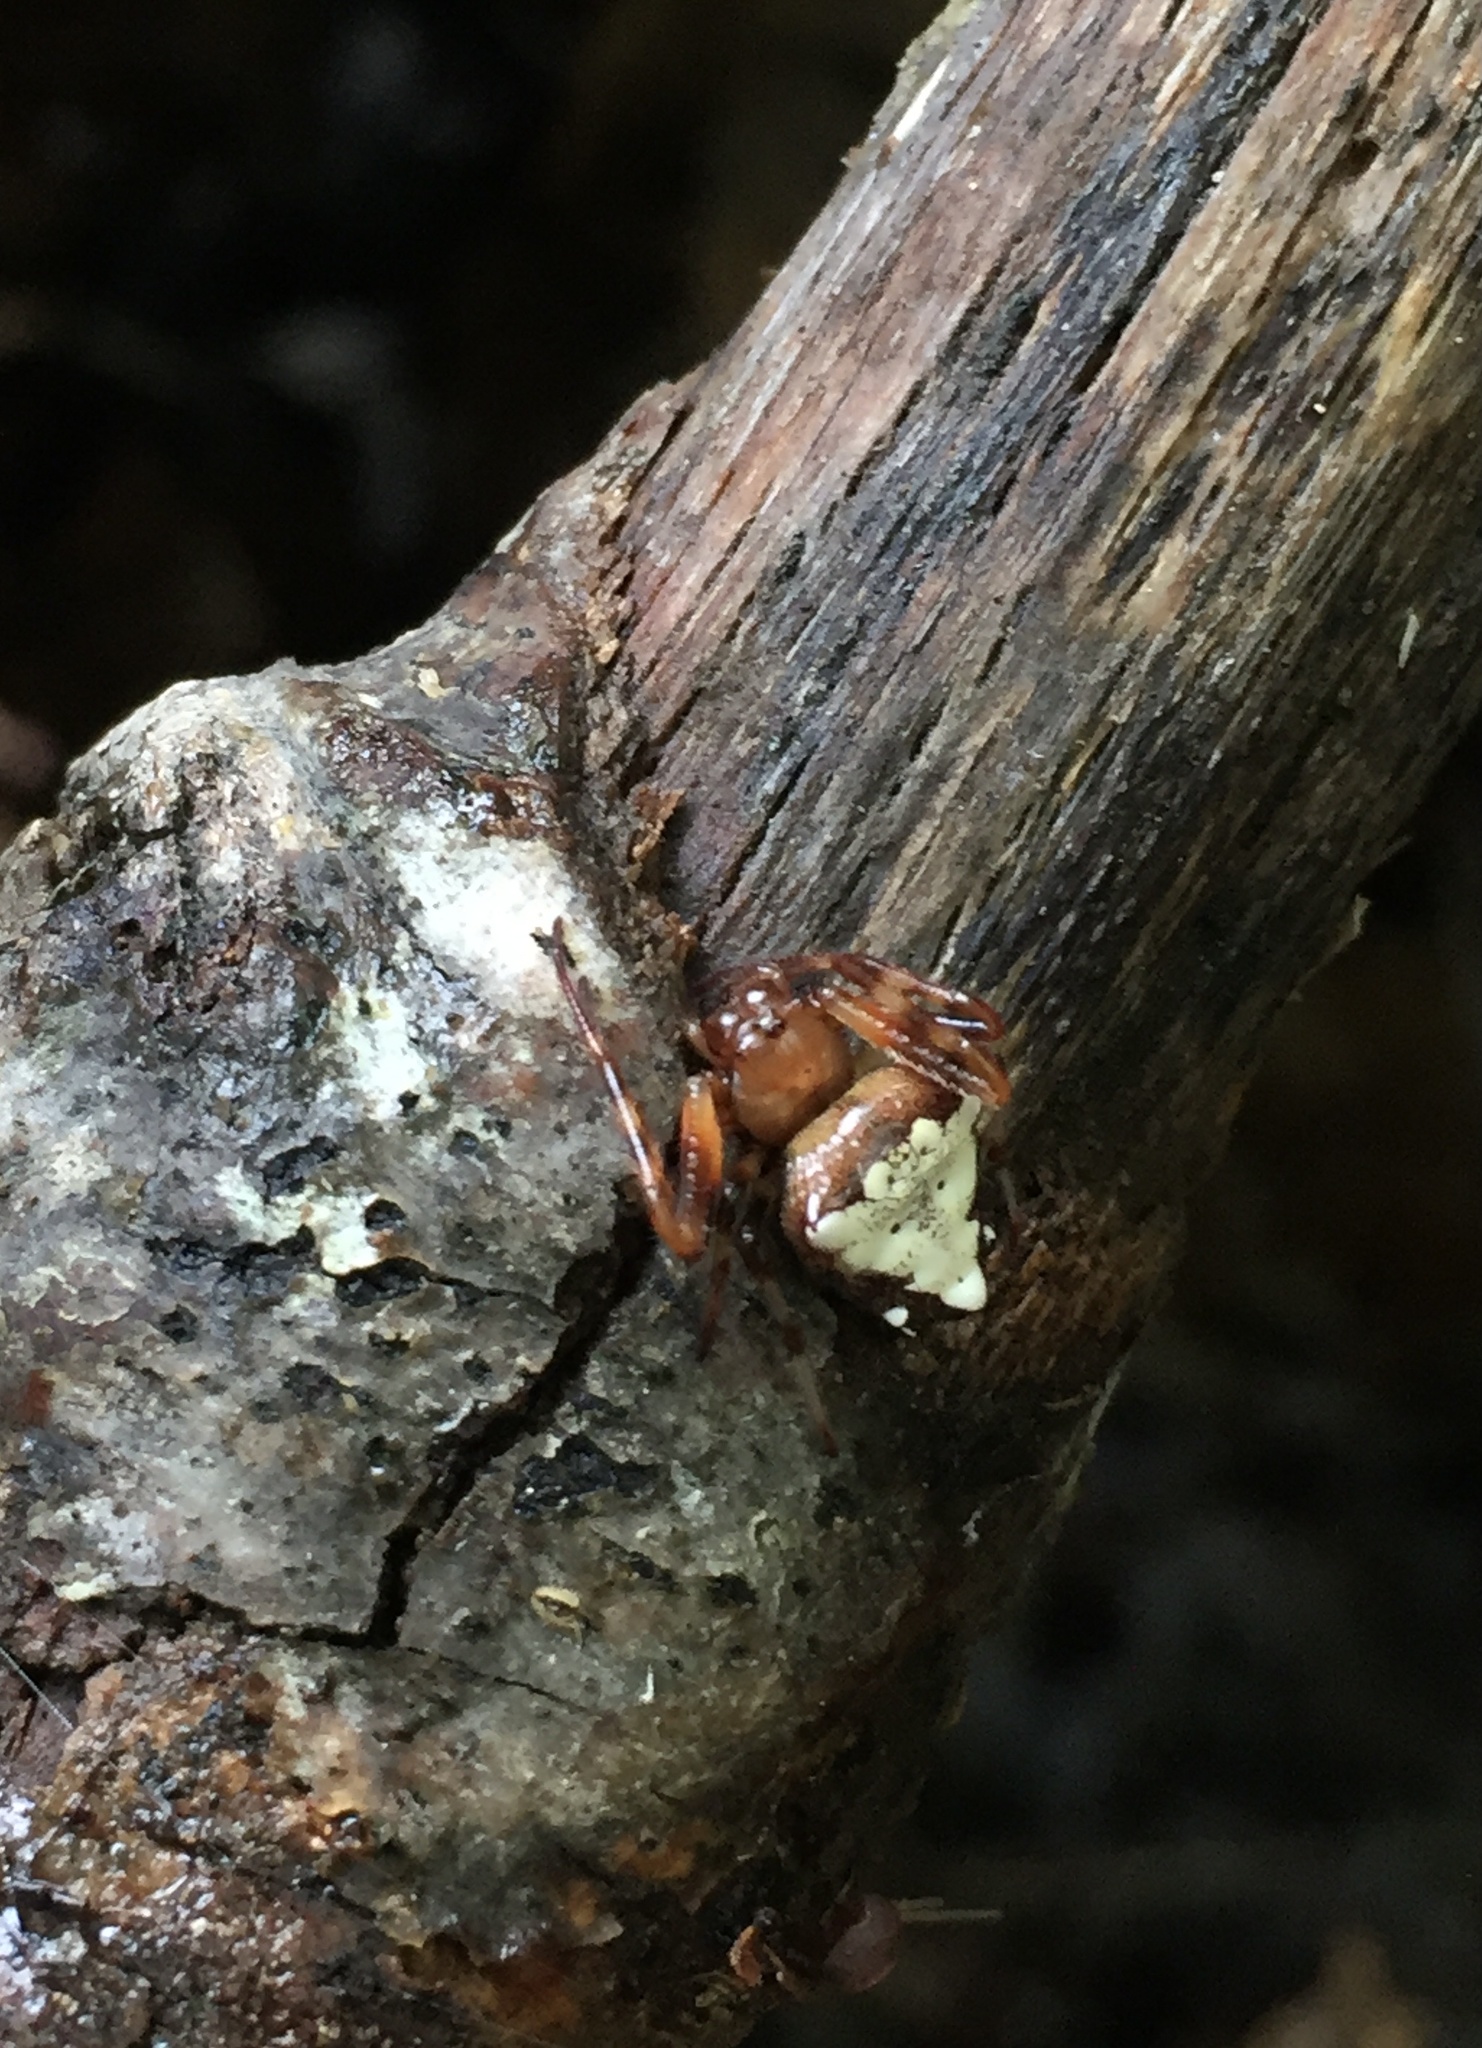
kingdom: Animalia
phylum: Arthropoda
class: Arachnida
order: Araneae
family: Araneidae
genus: Verrucosa
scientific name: Verrucosa arenata
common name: Orb weavers
